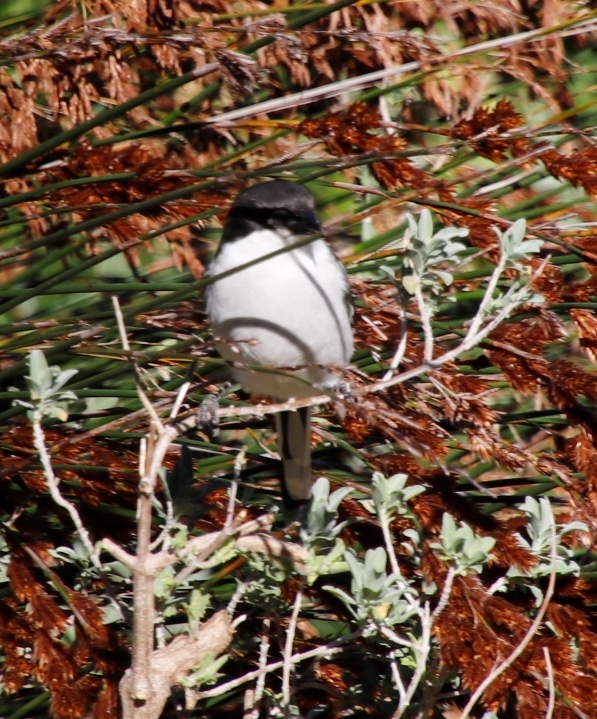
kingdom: Animalia
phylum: Chordata
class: Aves
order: Passeriformes
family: Laniidae
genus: Lanius
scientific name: Lanius collaris
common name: Southern fiscal
